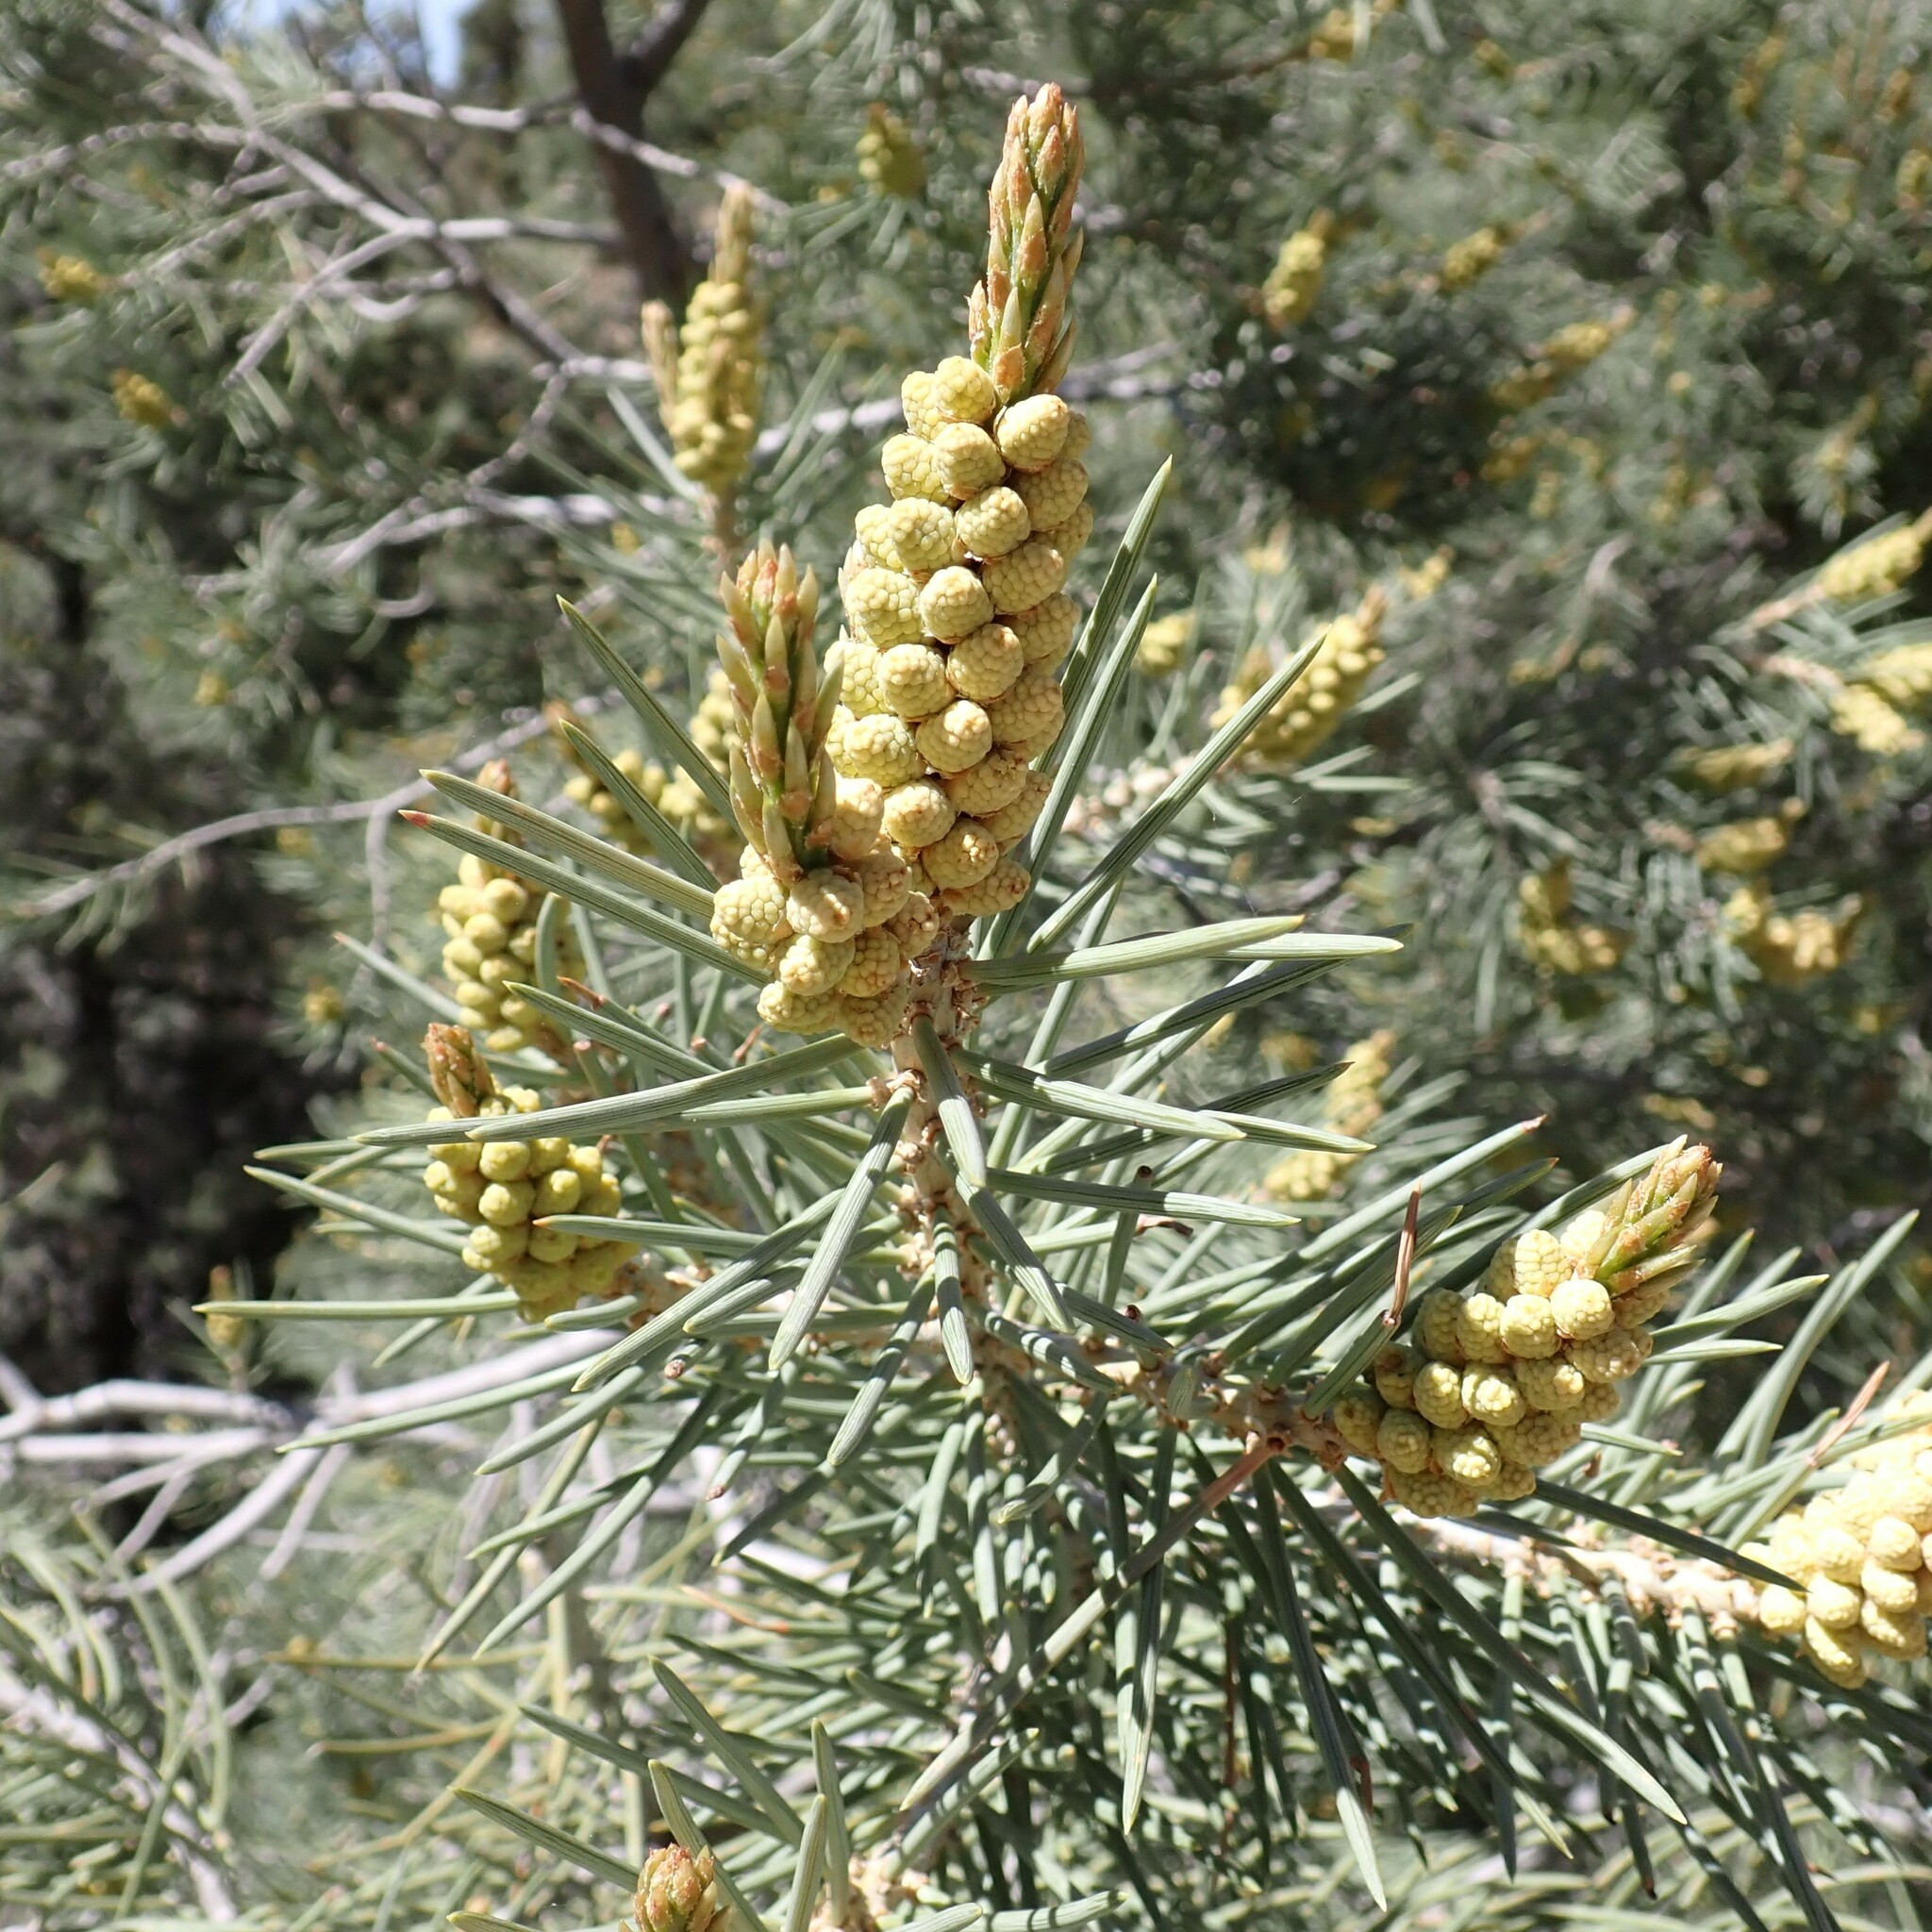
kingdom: Plantae
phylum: Tracheophyta
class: Pinopsida
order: Pinales
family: Pinaceae
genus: Pinus
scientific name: Pinus monophylla
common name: One-leaved nut pine
